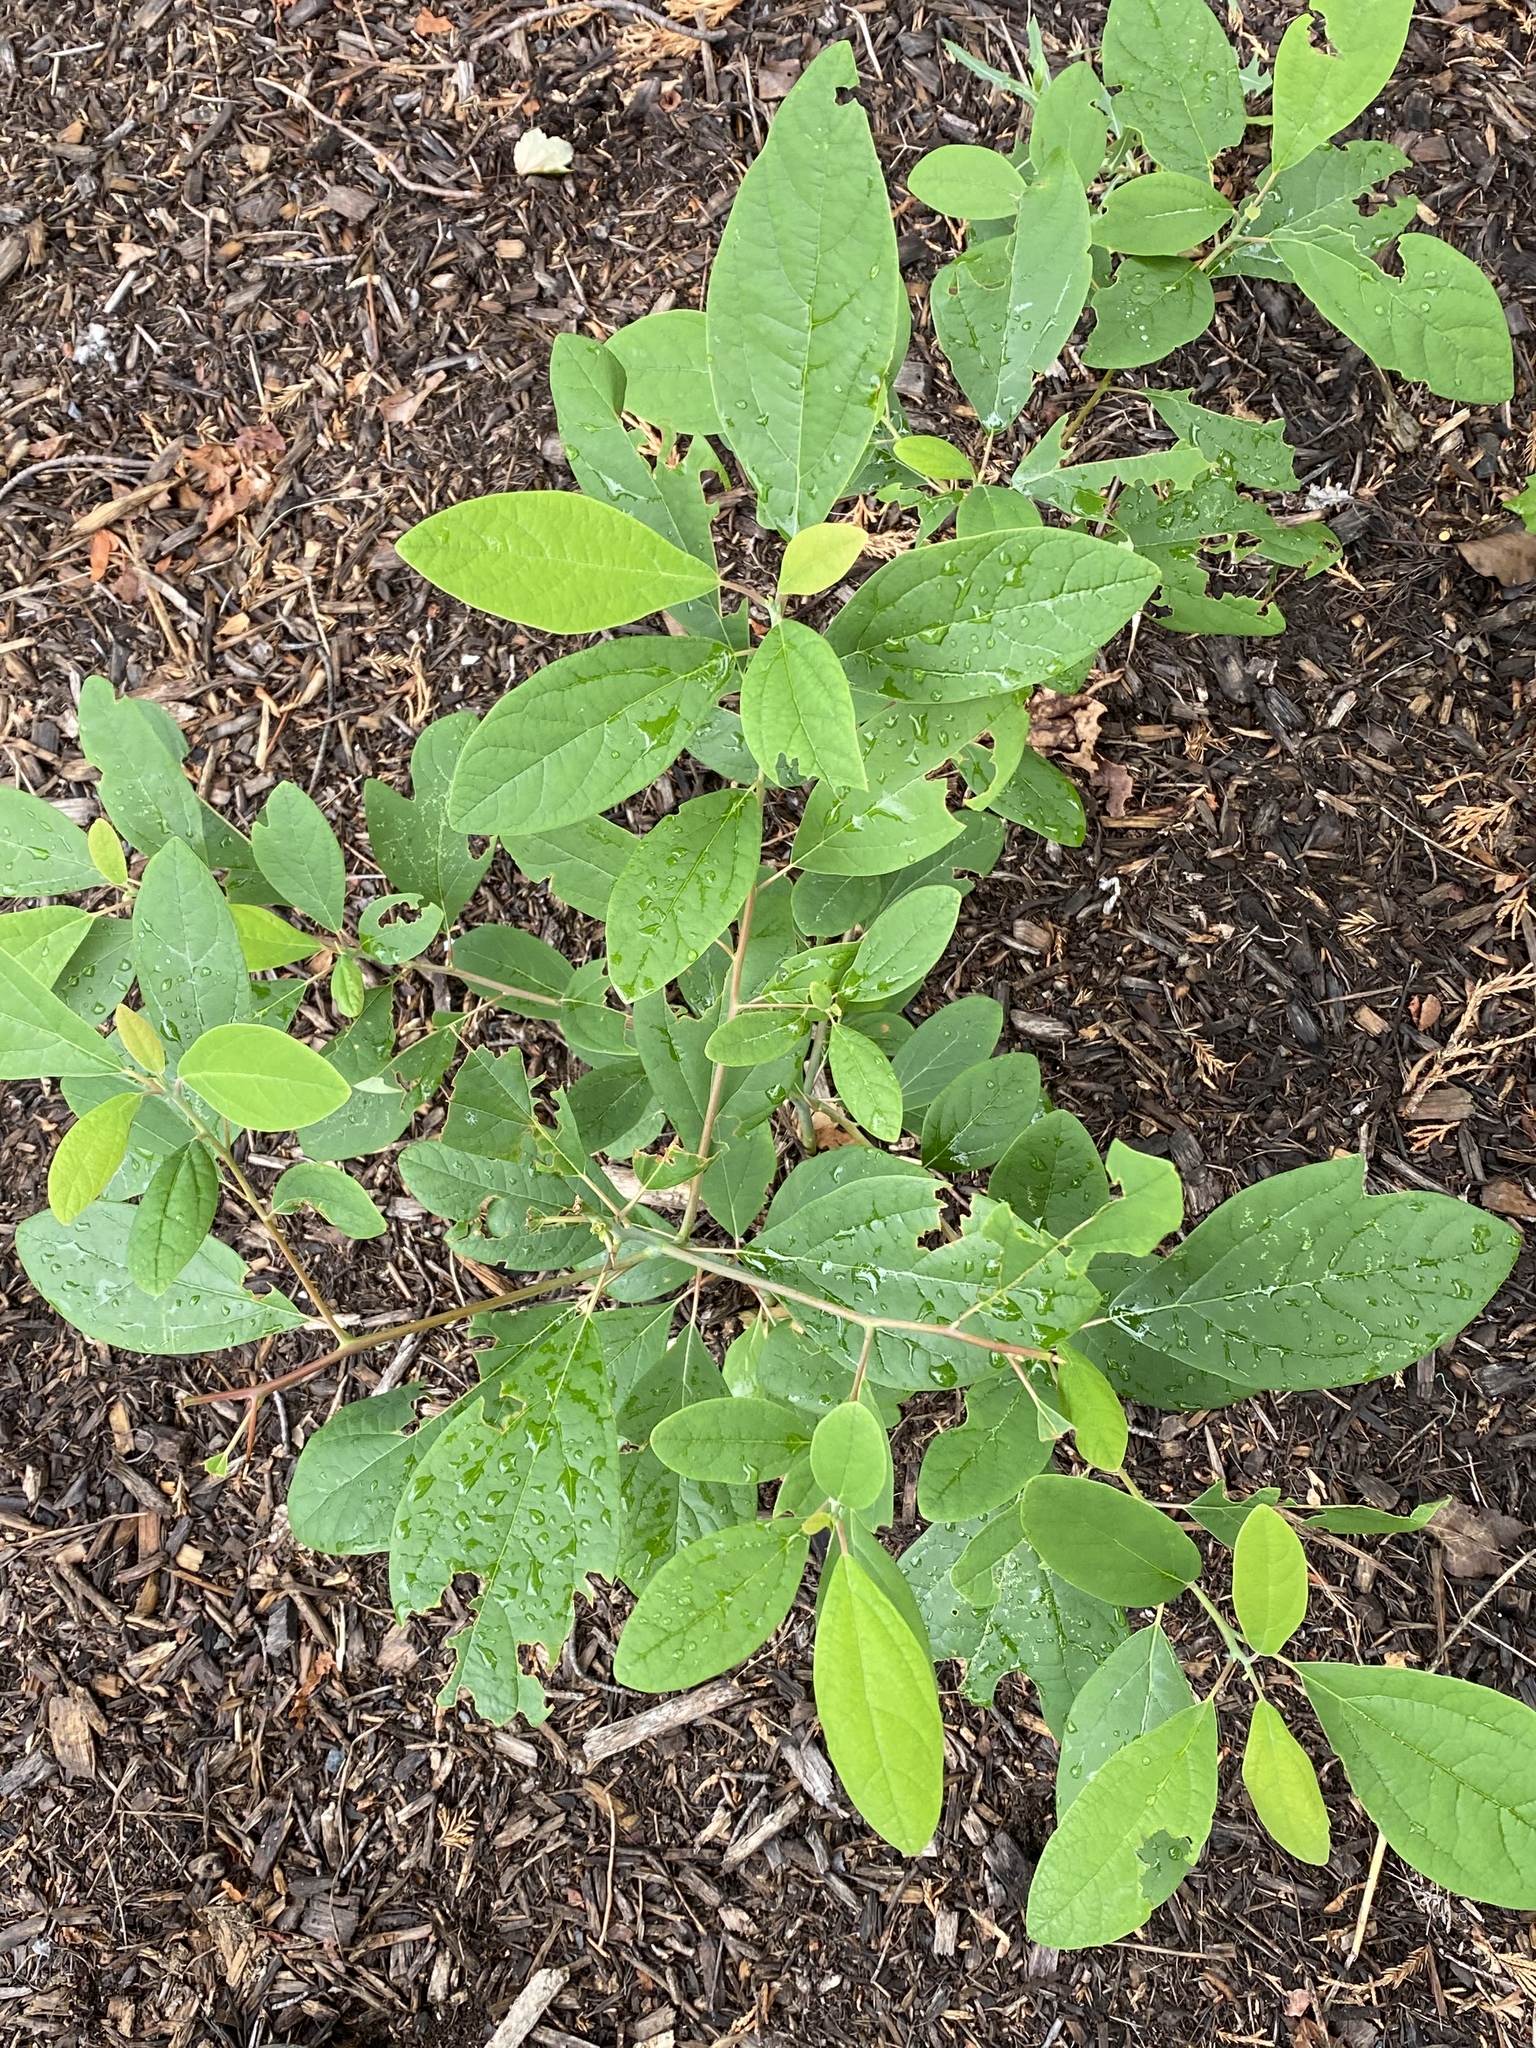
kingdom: Plantae
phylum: Tracheophyta
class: Magnoliopsida
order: Laurales
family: Lauraceae
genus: Sassafras
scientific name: Sassafras albidum
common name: Sassafras
